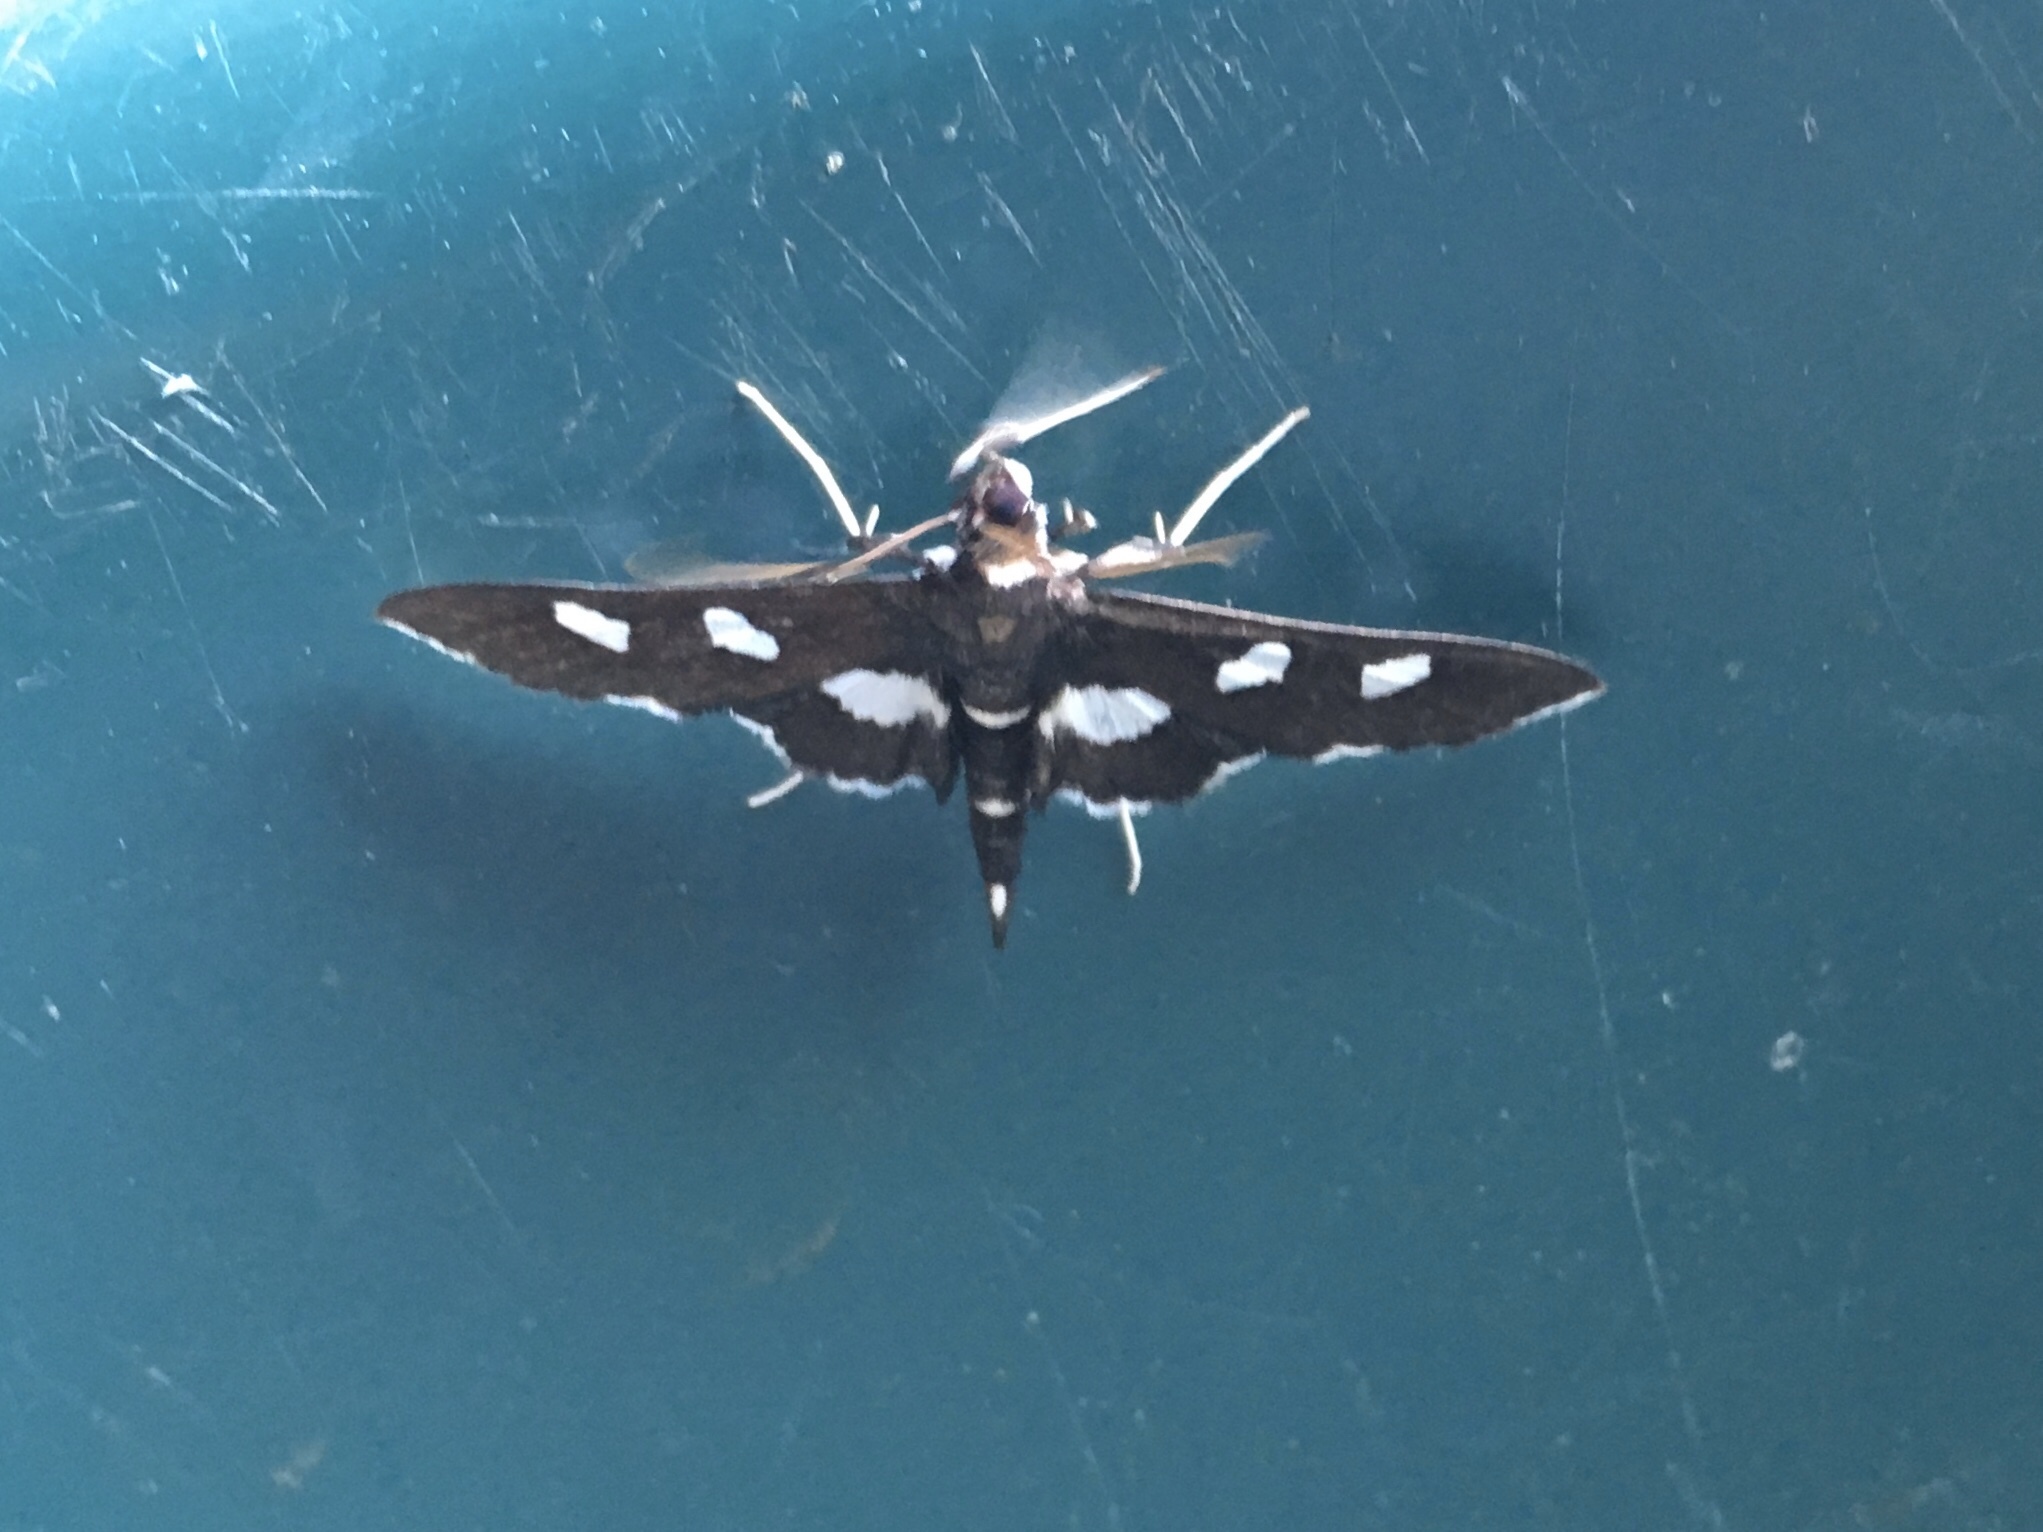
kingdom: Animalia
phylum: Arthropoda
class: Insecta
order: Lepidoptera
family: Crambidae
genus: Desmia
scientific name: Desmia
